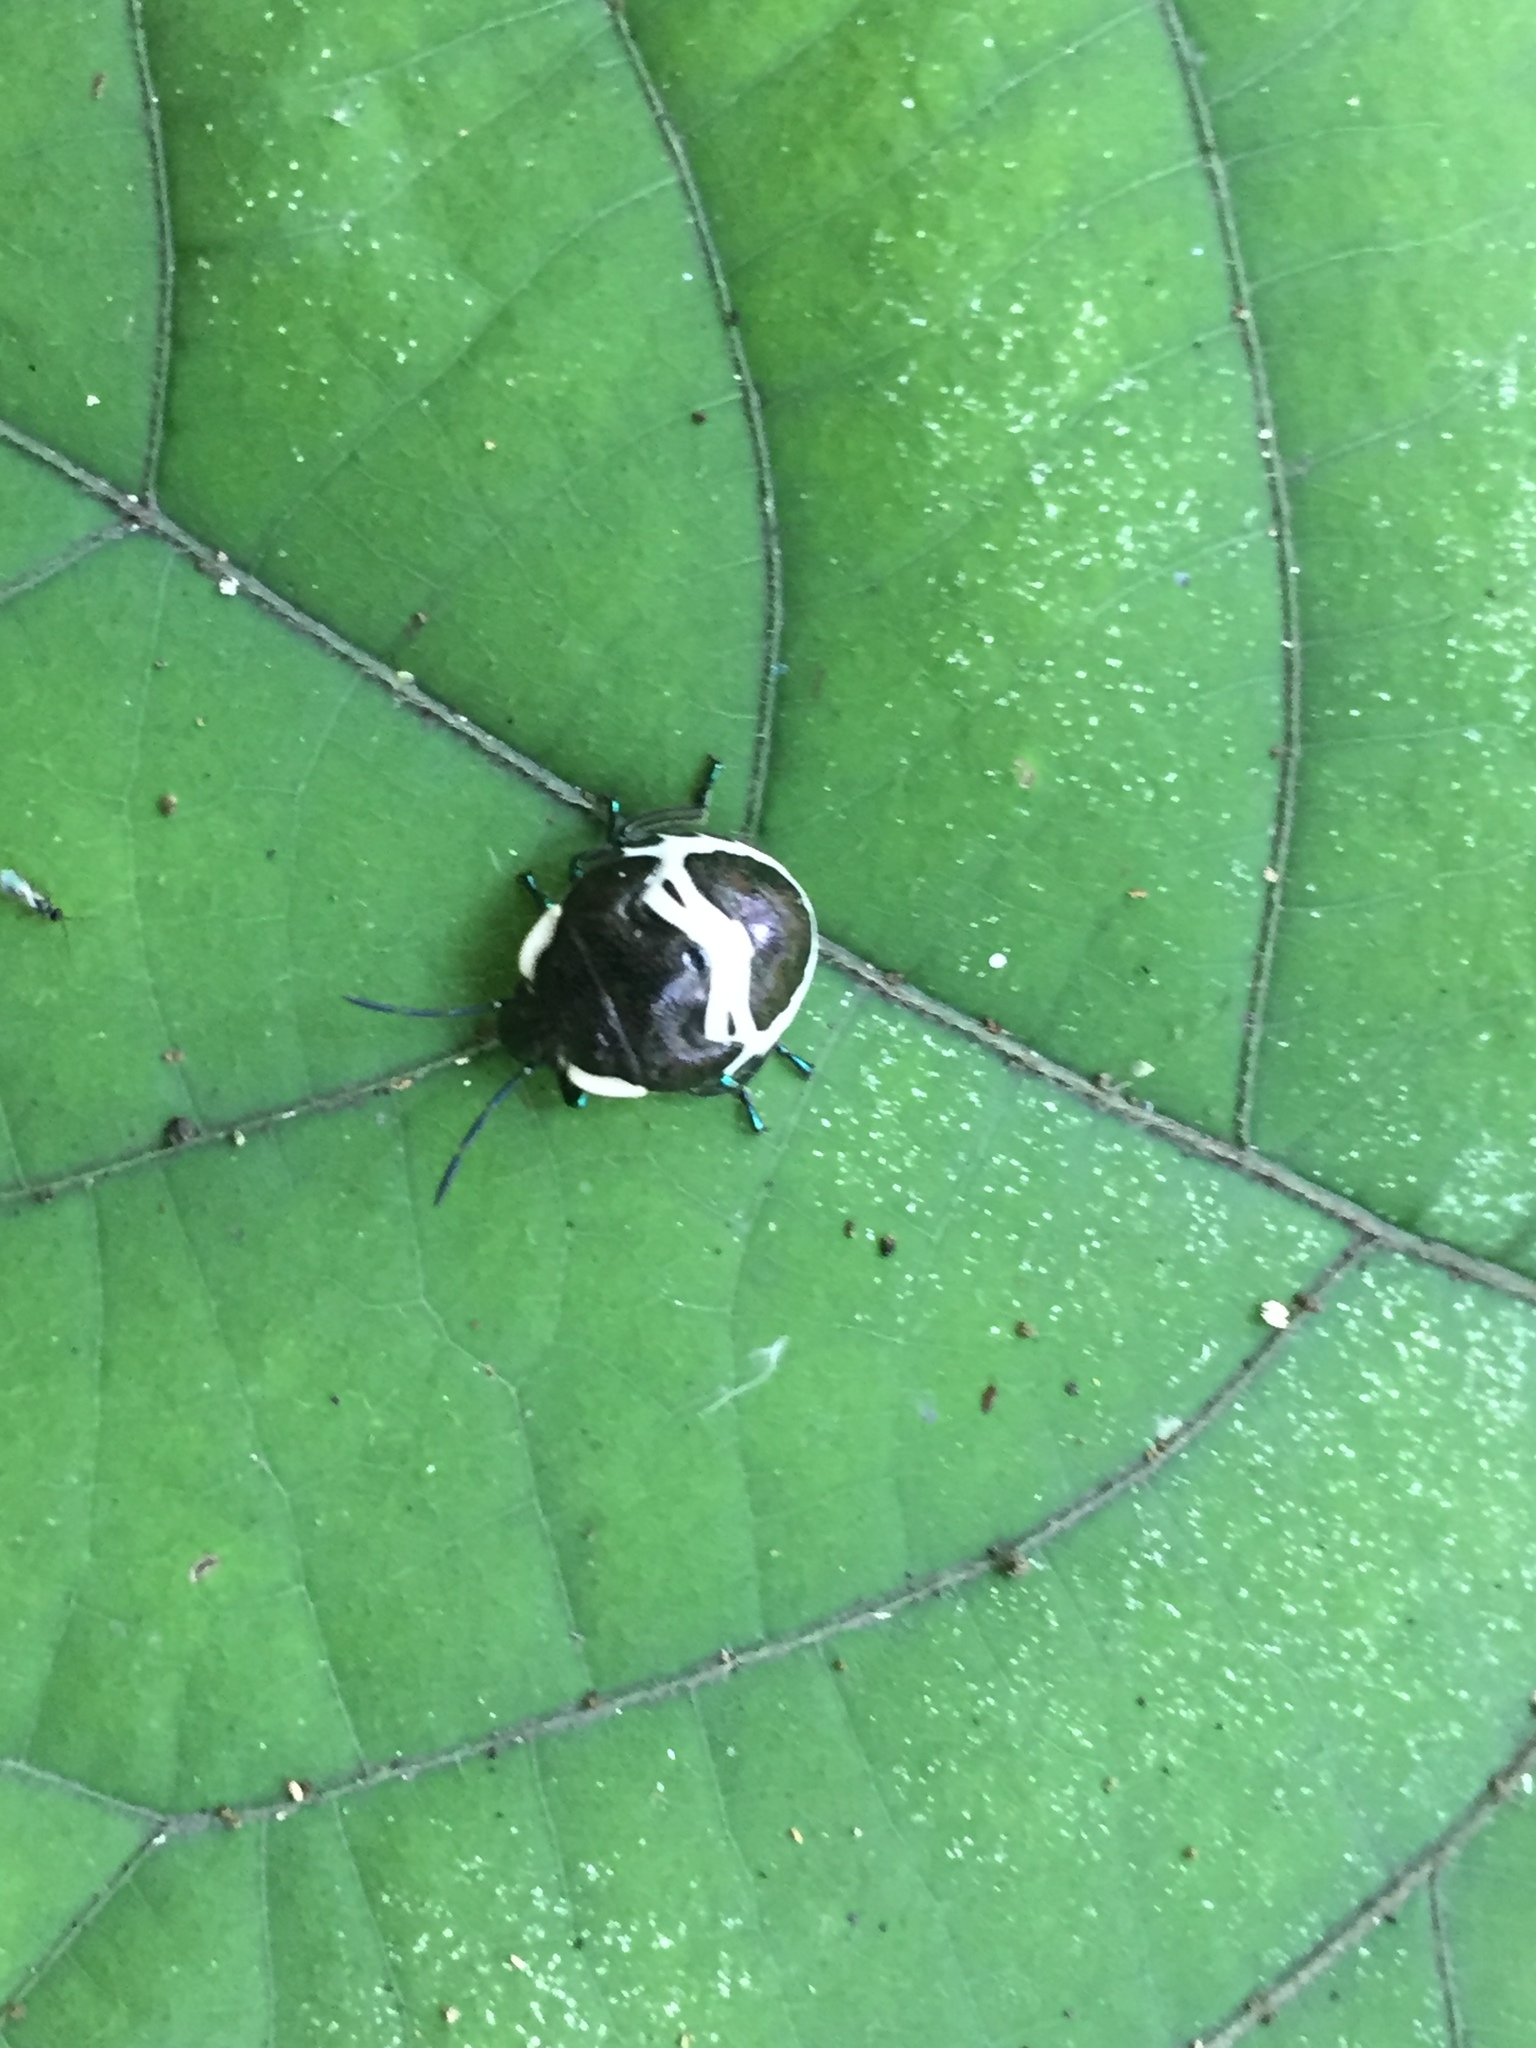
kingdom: Animalia
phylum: Arthropoda
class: Insecta
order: Hemiptera
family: Scutelleridae
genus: Poecilocoris
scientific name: Poecilocoris lewisi
